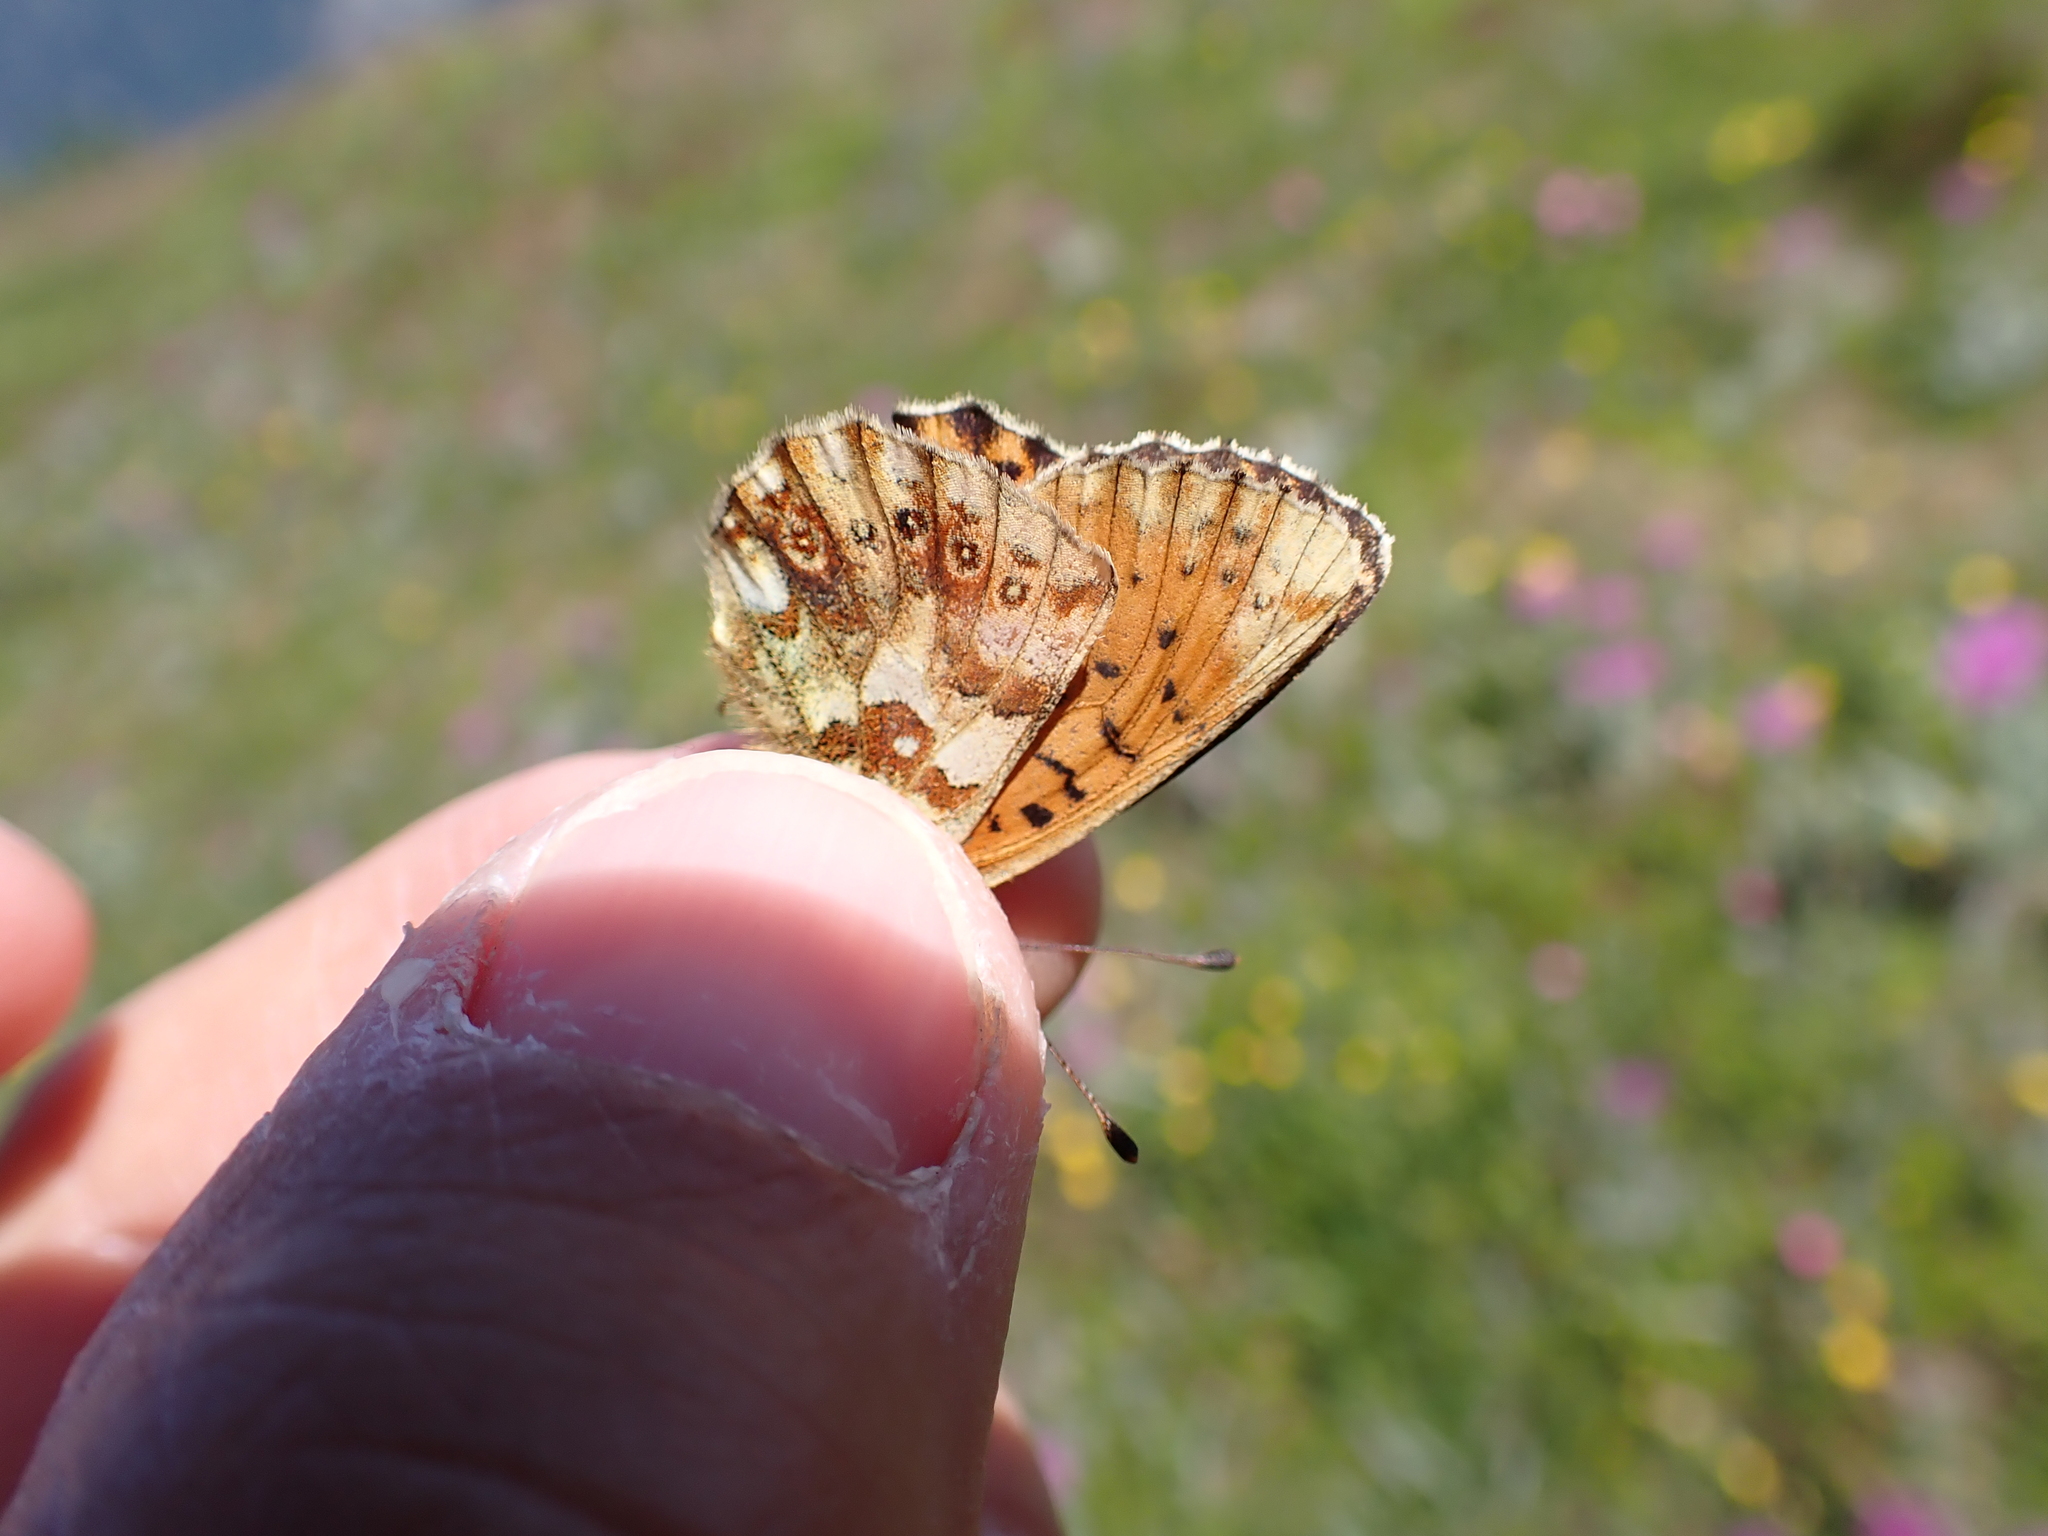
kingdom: Animalia
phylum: Arthropoda
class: Insecta
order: Lepidoptera
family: Nymphalidae
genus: Boloria
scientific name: Boloria graeca
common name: Balkan fritillary
